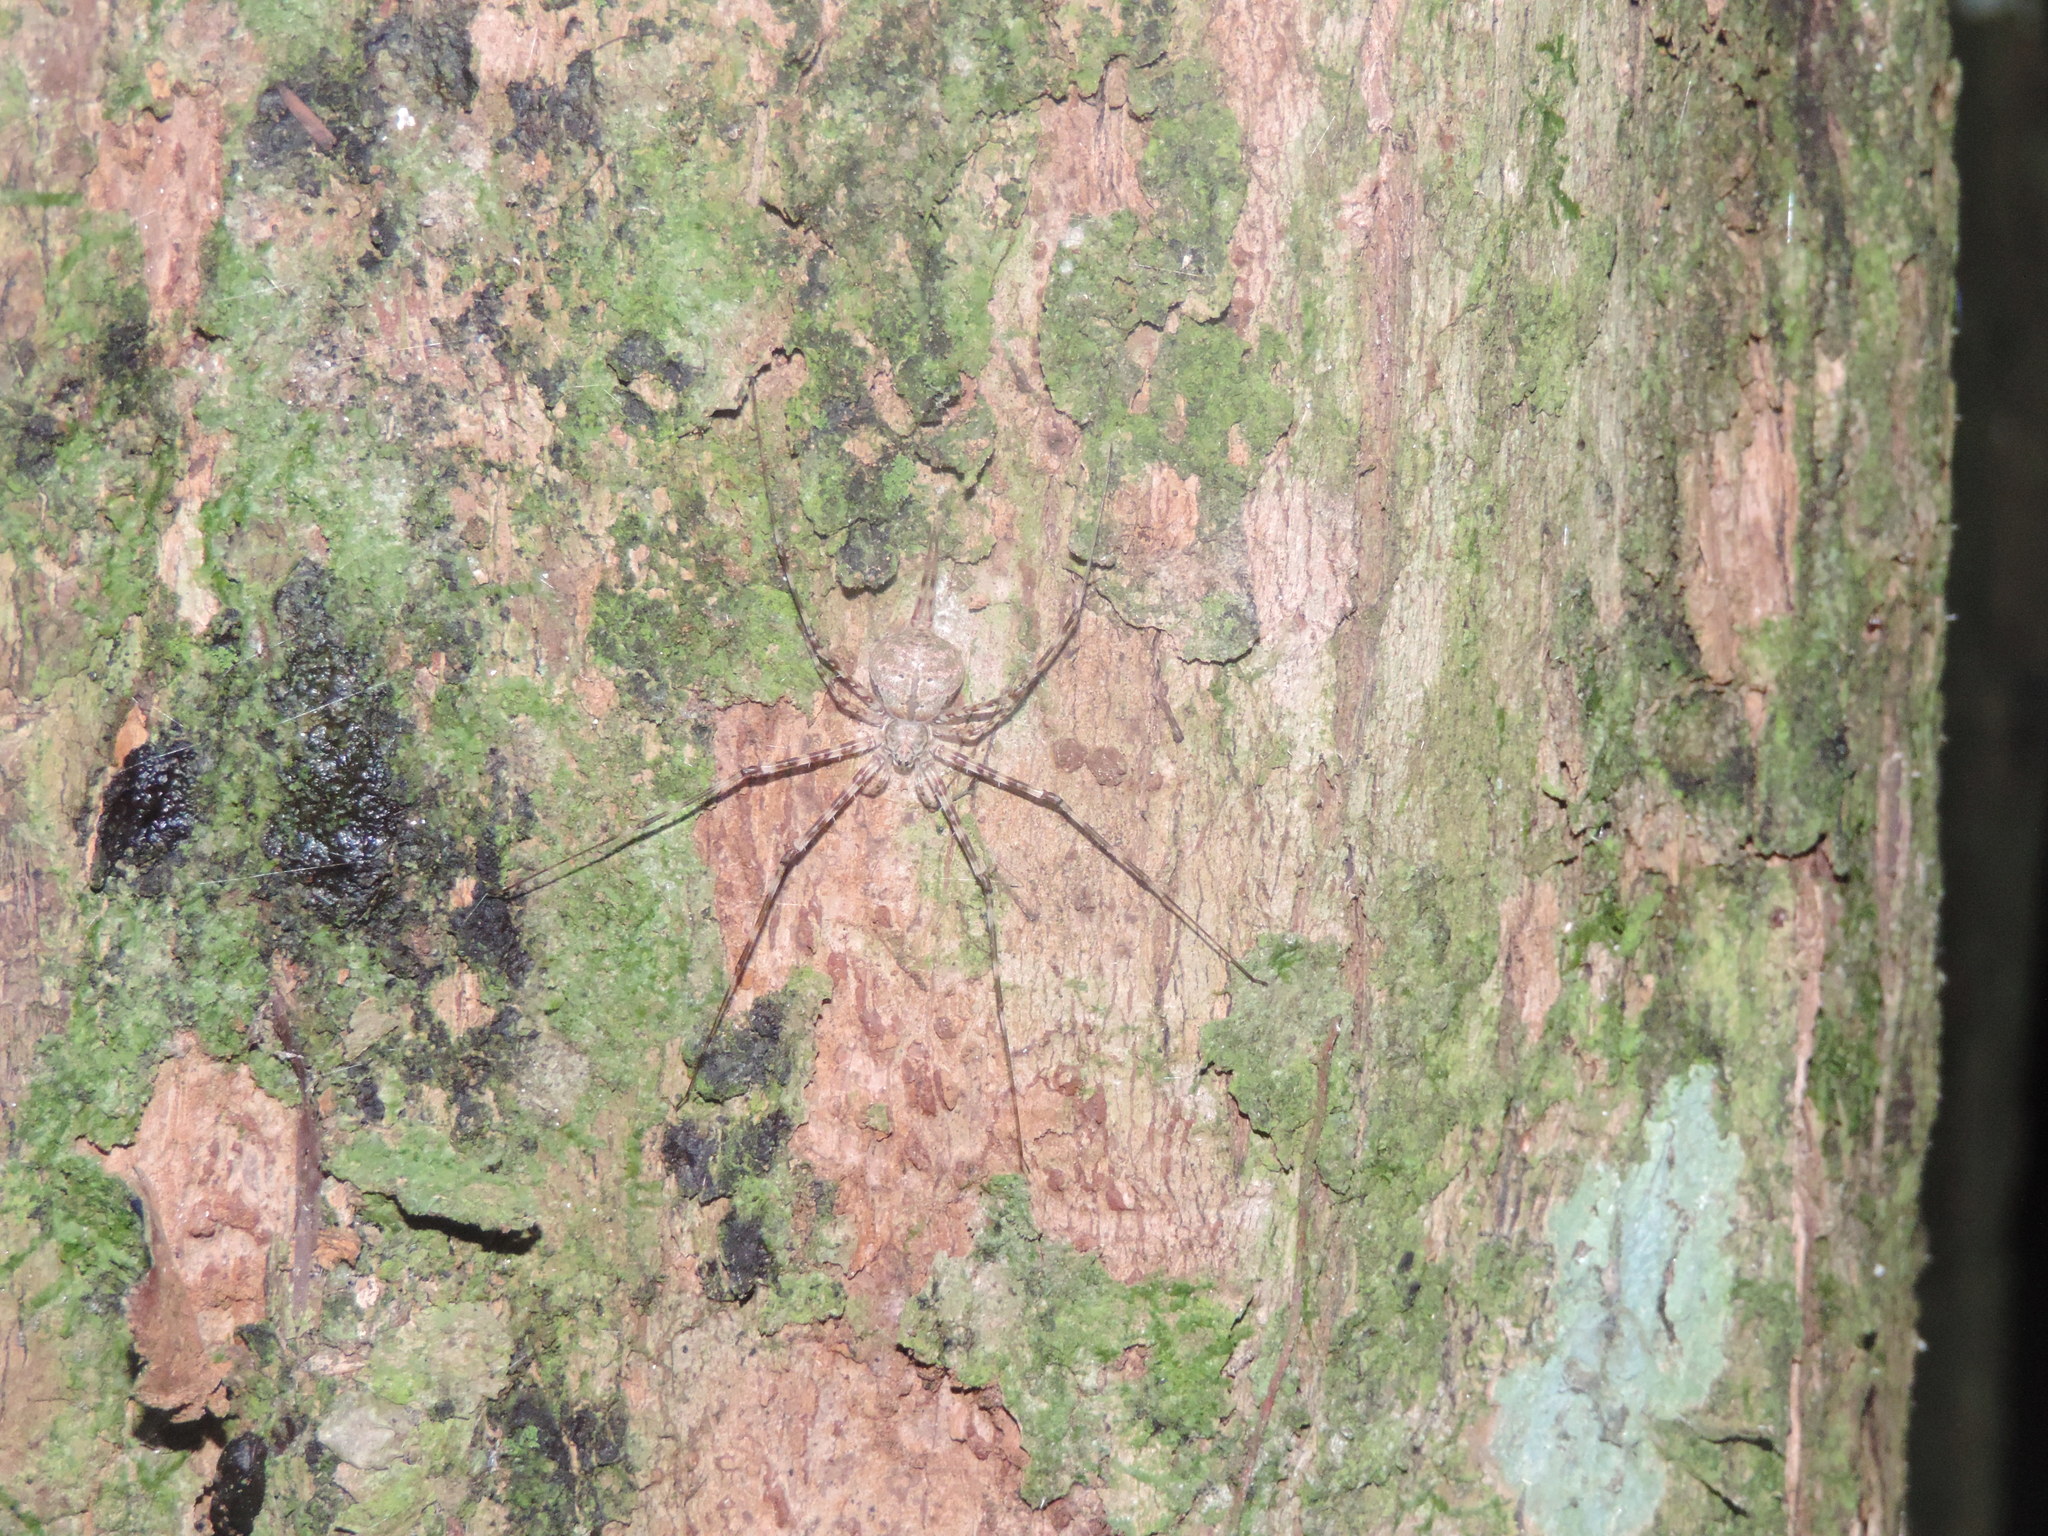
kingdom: Animalia
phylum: Arthropoda
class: Arachnida
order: Araneae
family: Hersiliidae
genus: Neotama
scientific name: Neotama mexicana
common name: Tree trunk spiders
